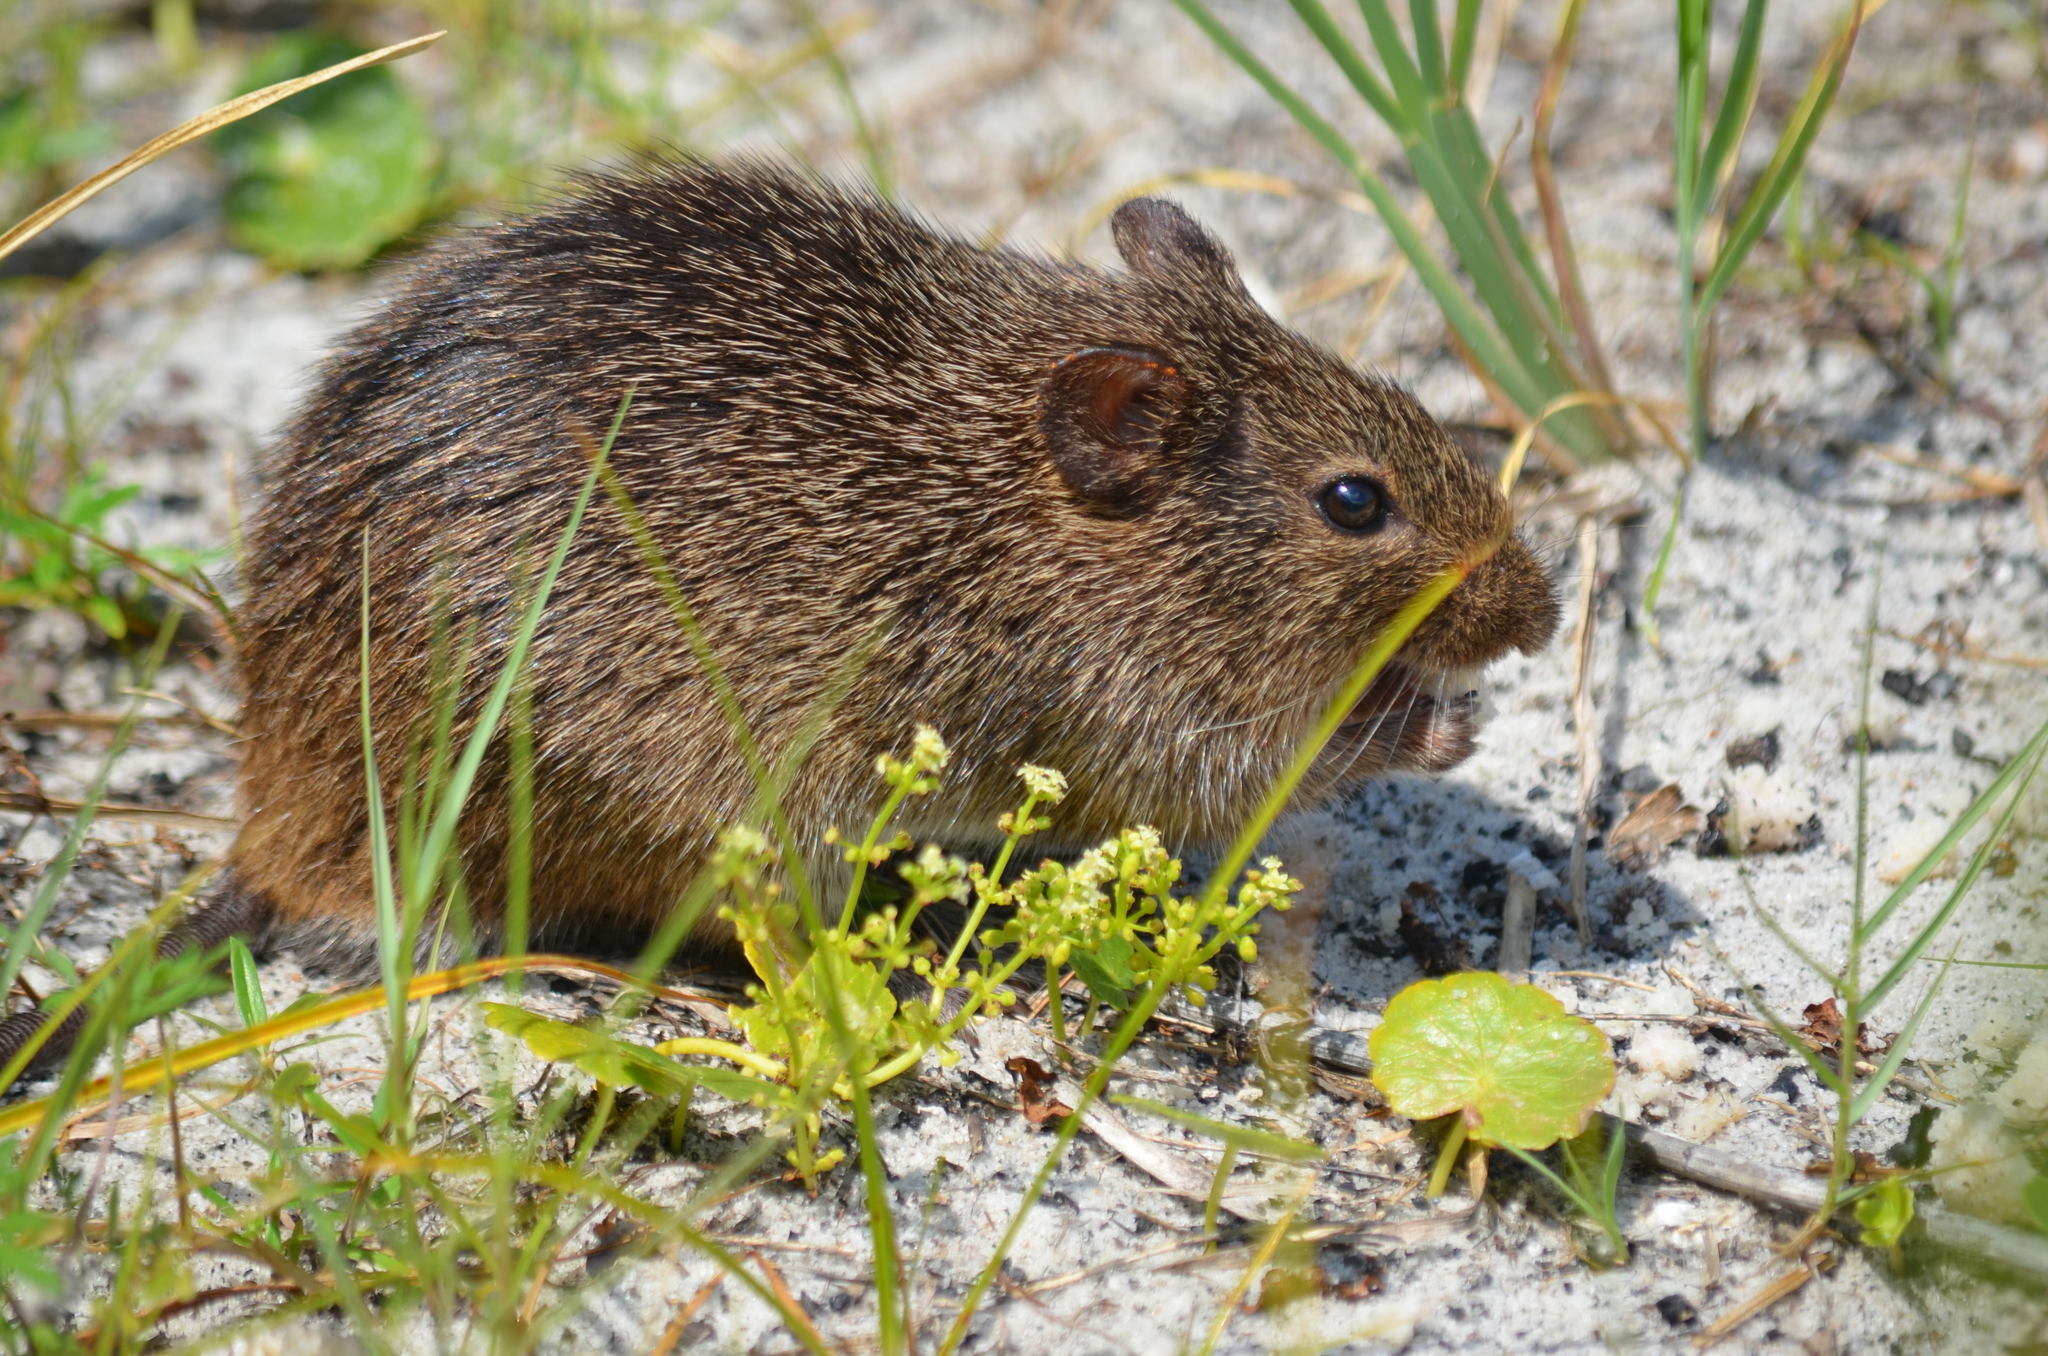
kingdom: Animalia
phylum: Chordata
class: Mammalia
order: Rodentia
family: Cricetidae
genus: Sigmodon
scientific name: Sigmodon hispidus
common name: Hispid cotton rat
